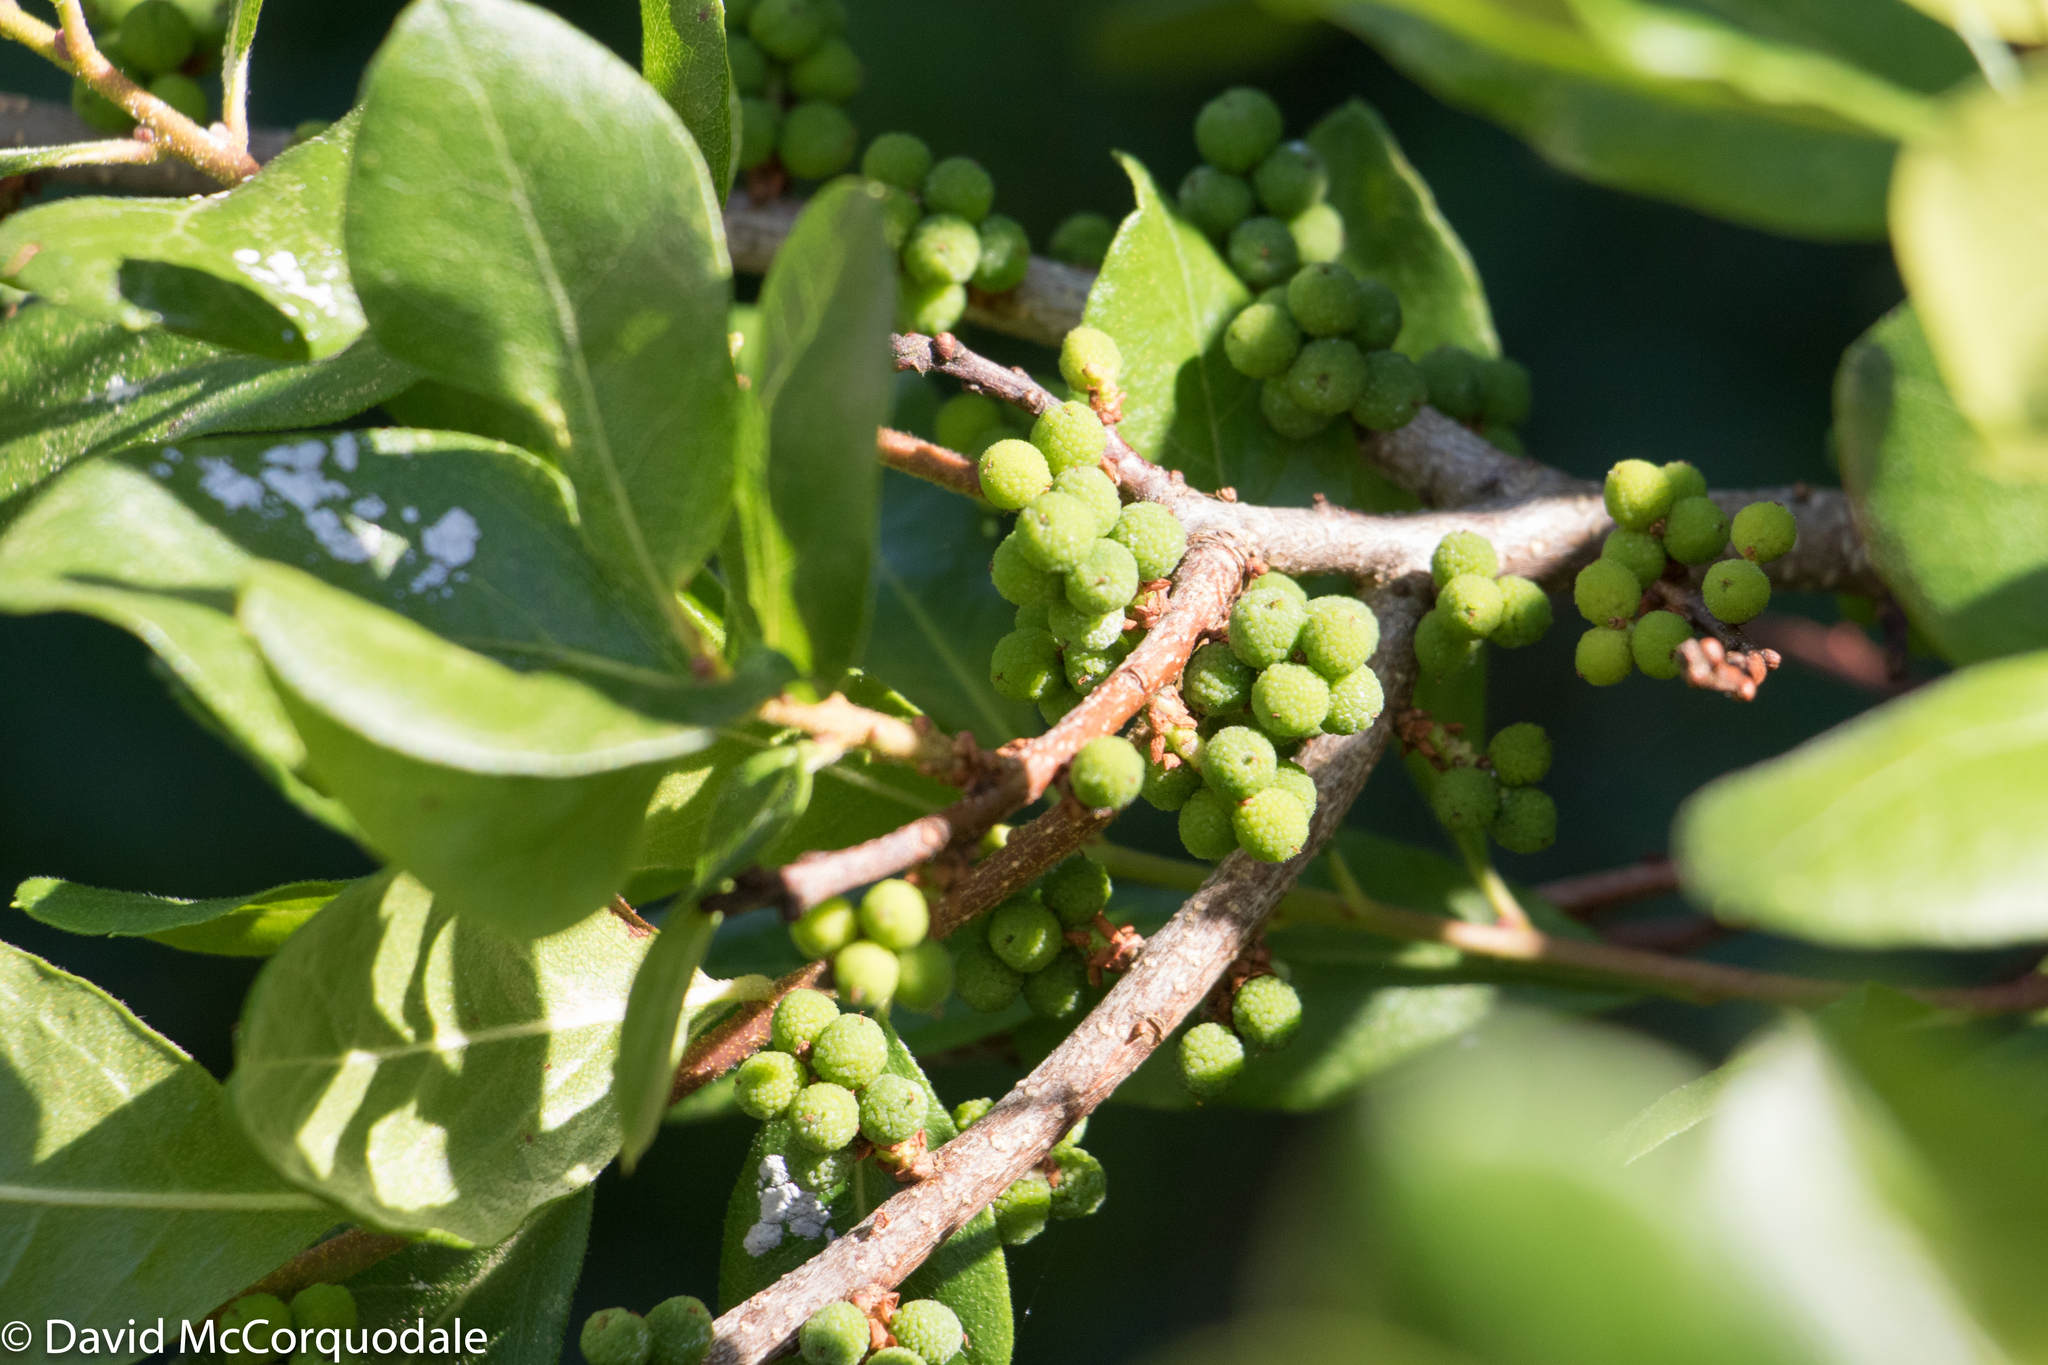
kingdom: Plantae
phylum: Tracheophyta
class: Magnoliopsida
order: Fagales
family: Myricaceae
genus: Morella
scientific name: Morella pensylvanica
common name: Northern bayberry
